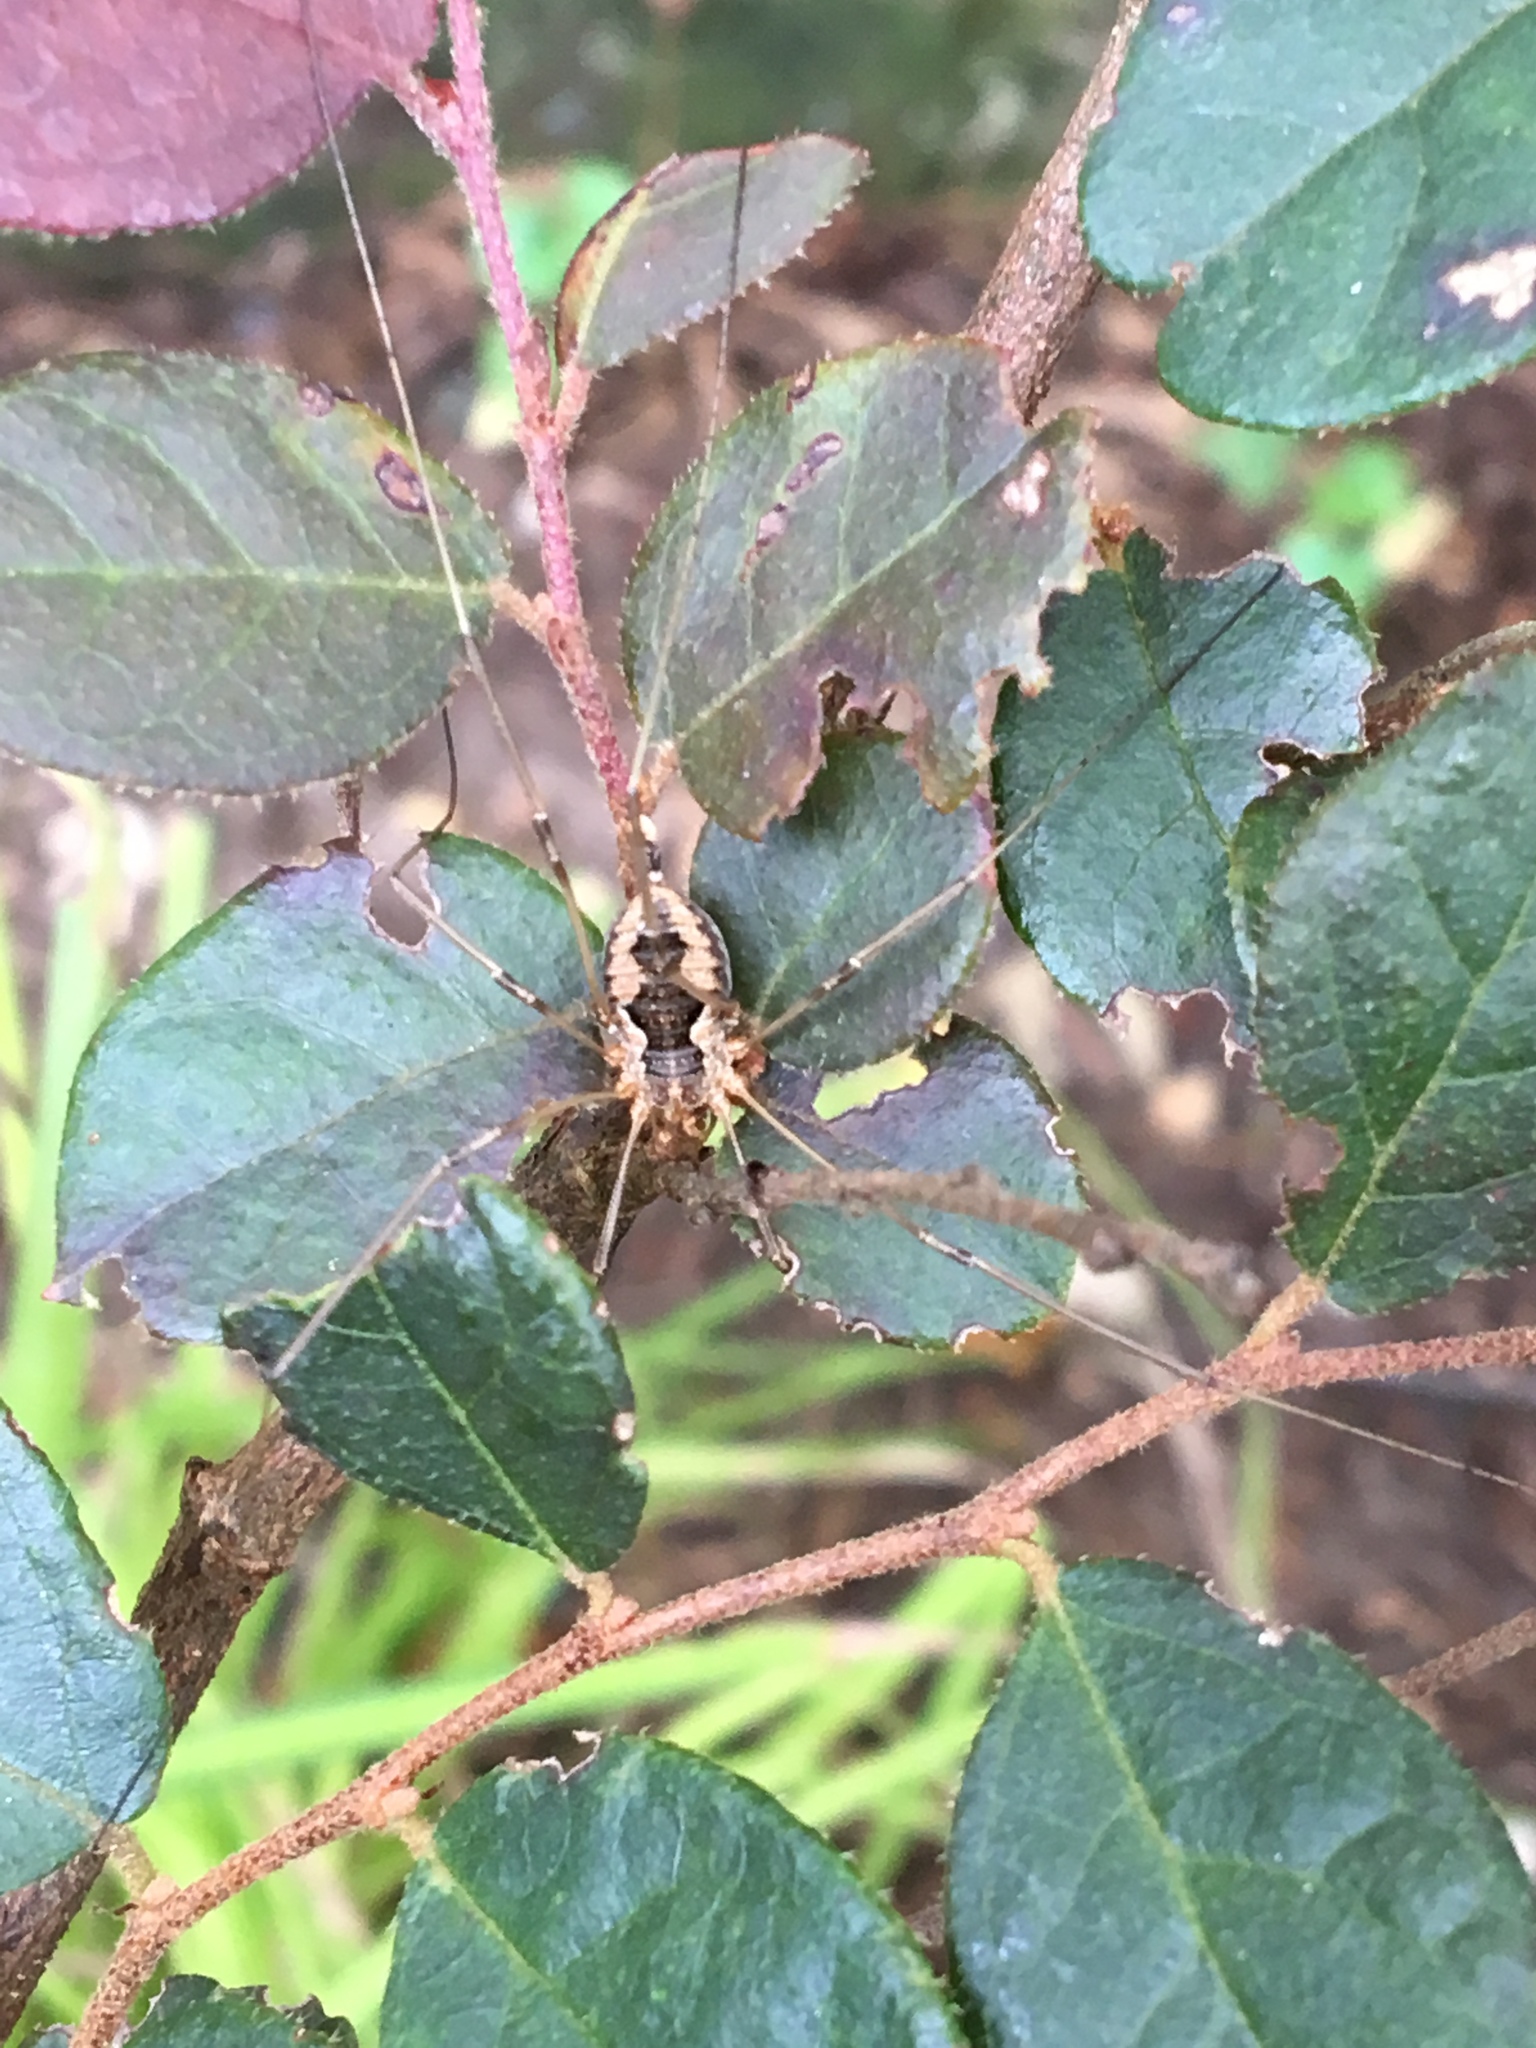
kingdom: Animalia
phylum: Arthropoda
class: Arachnida
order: Opiliones
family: Phalangiidae
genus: Phalangium
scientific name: Phalangium opilio
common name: Daddy longleg
